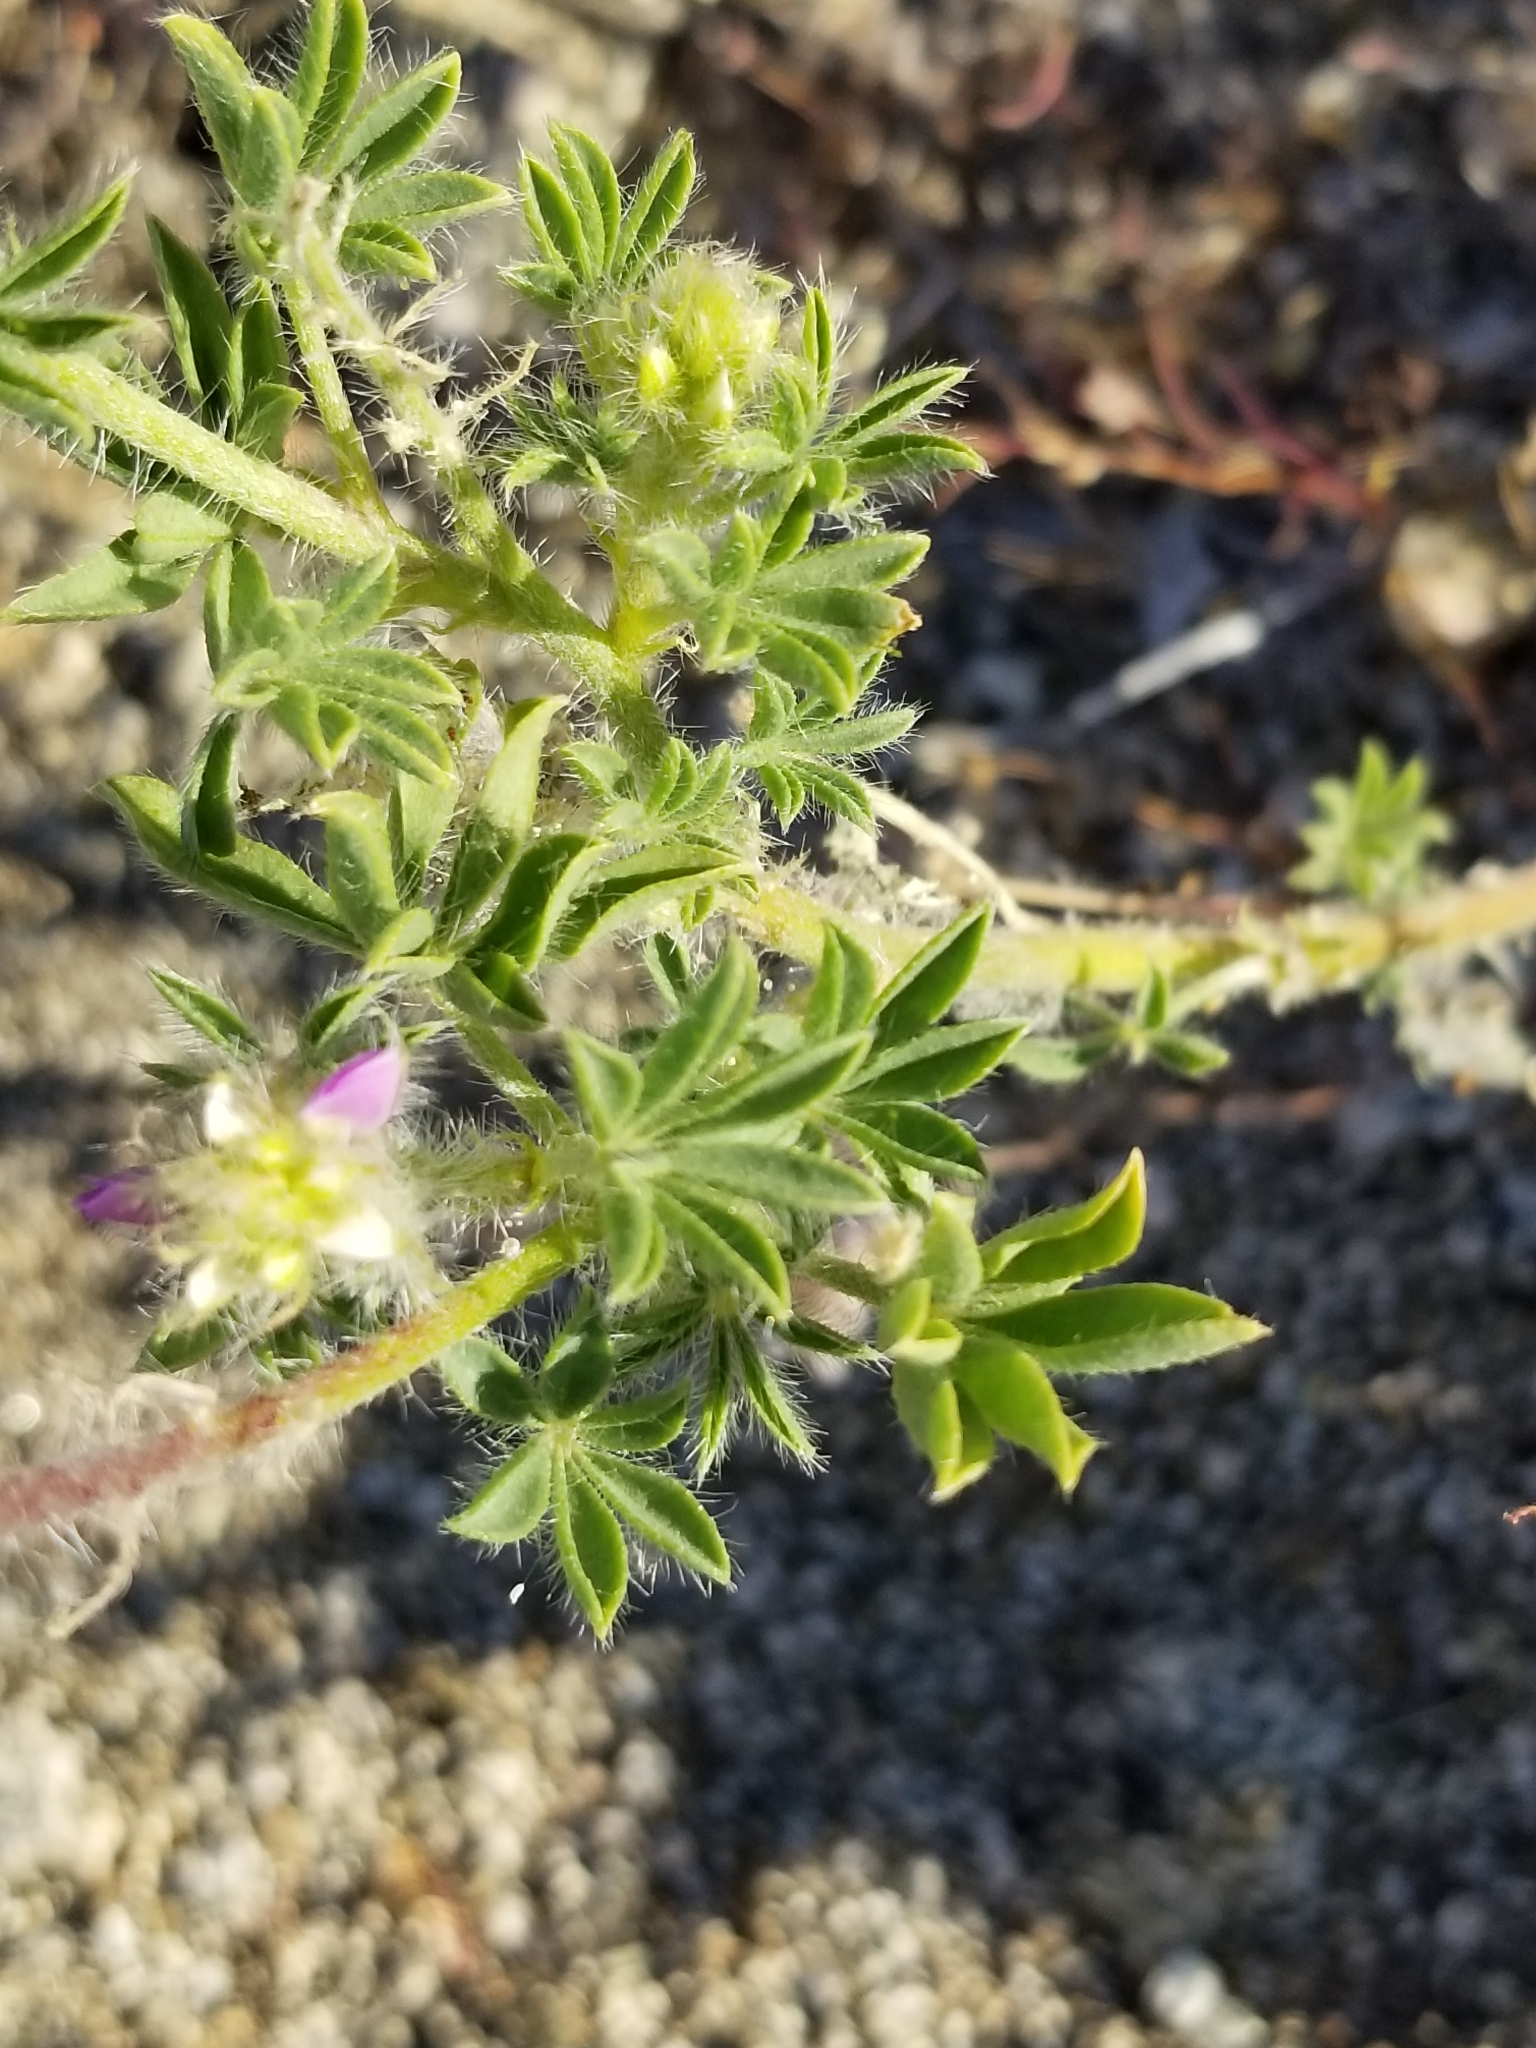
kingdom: Plantae
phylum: Tracheophyta
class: Magnoliopsida
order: Fabales
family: Fabaceae
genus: Lupinus
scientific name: Lupinus arizonicus
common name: Arizona lupine
